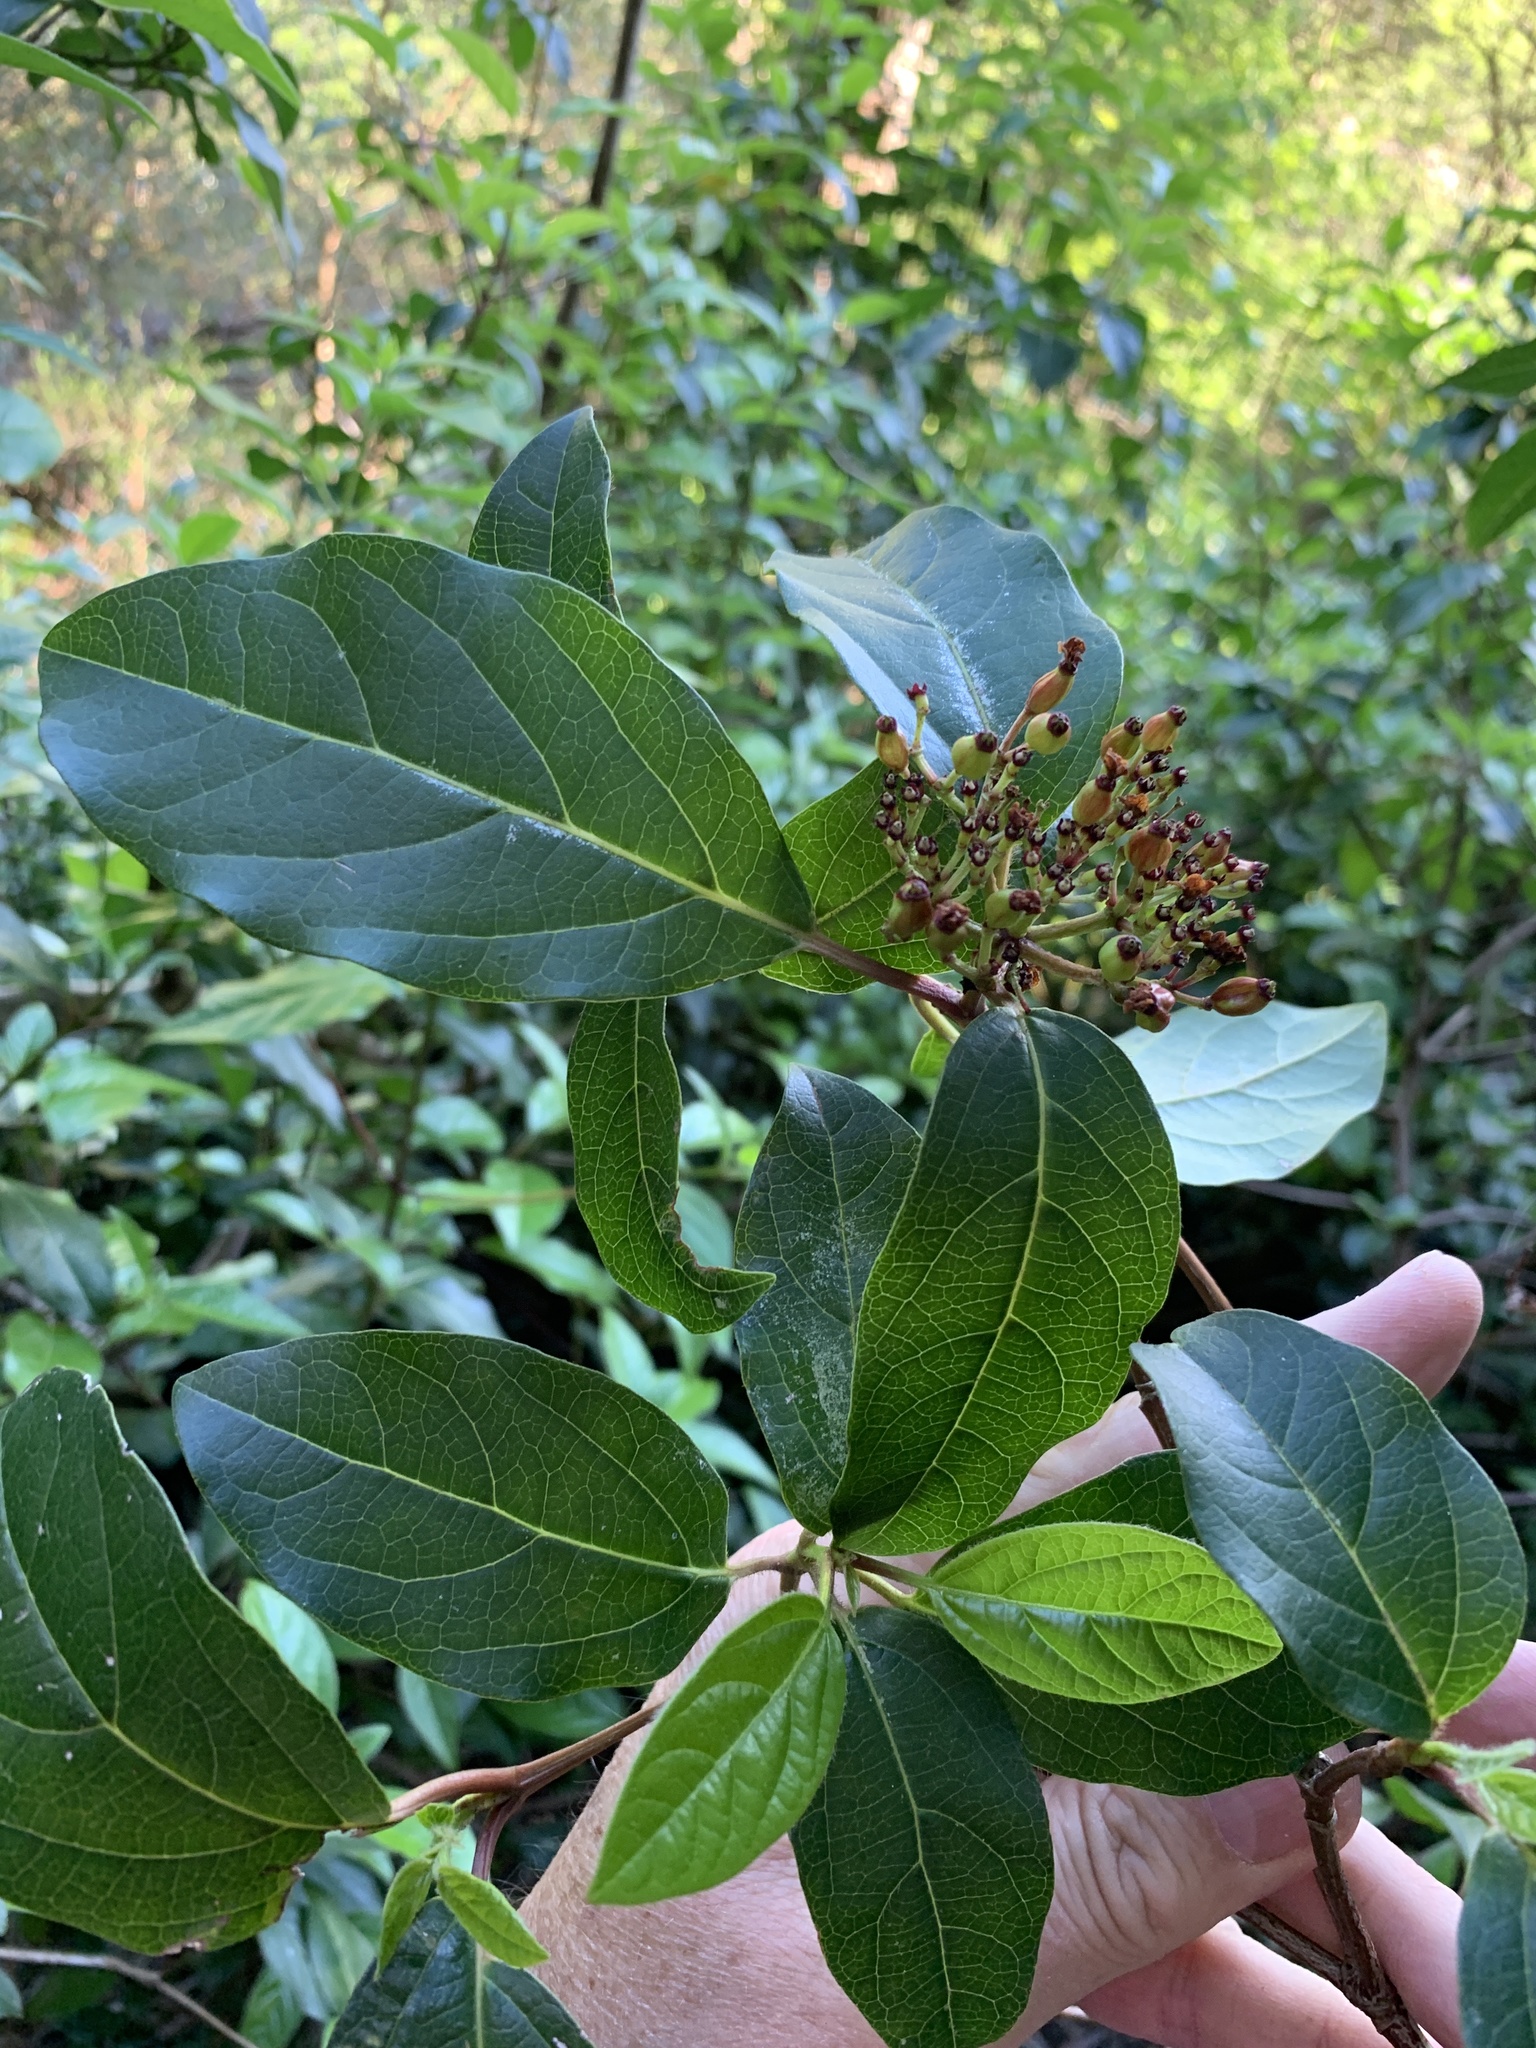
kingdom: Plantae
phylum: Tracheophyta
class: Magnoliopsida
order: Dipsacales
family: Viburnaceae
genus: Viburnum
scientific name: Viburnum tinus
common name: Laurustinus
